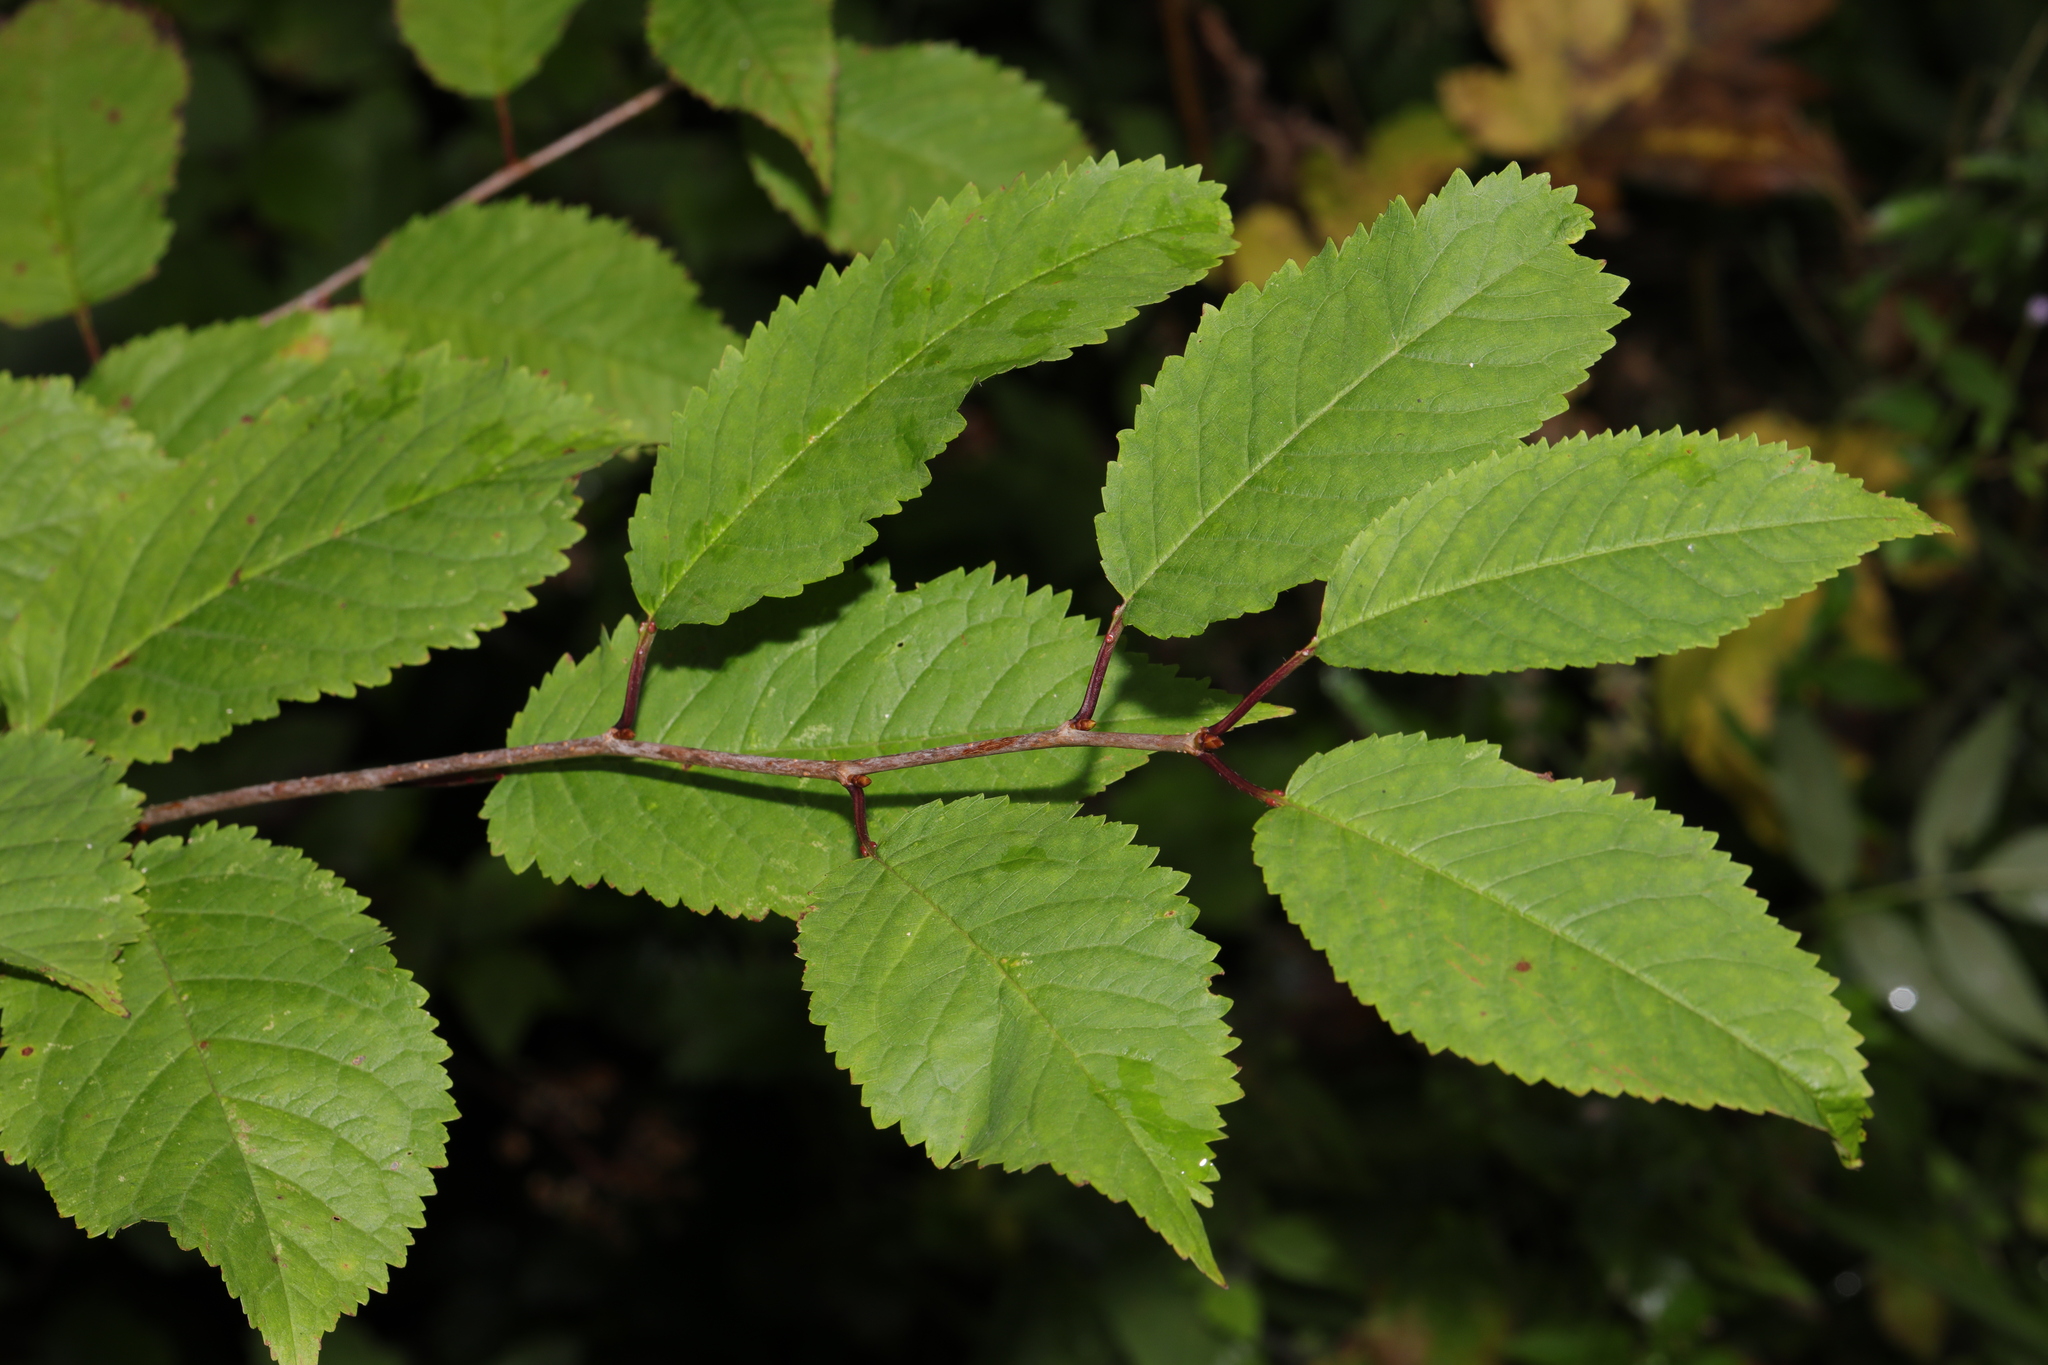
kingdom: Plantae
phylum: Tracheophyta
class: Magnoliopsida
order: Rosales
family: Rosaceae
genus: Prunus
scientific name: Prunus avium
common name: Sweet cherry
